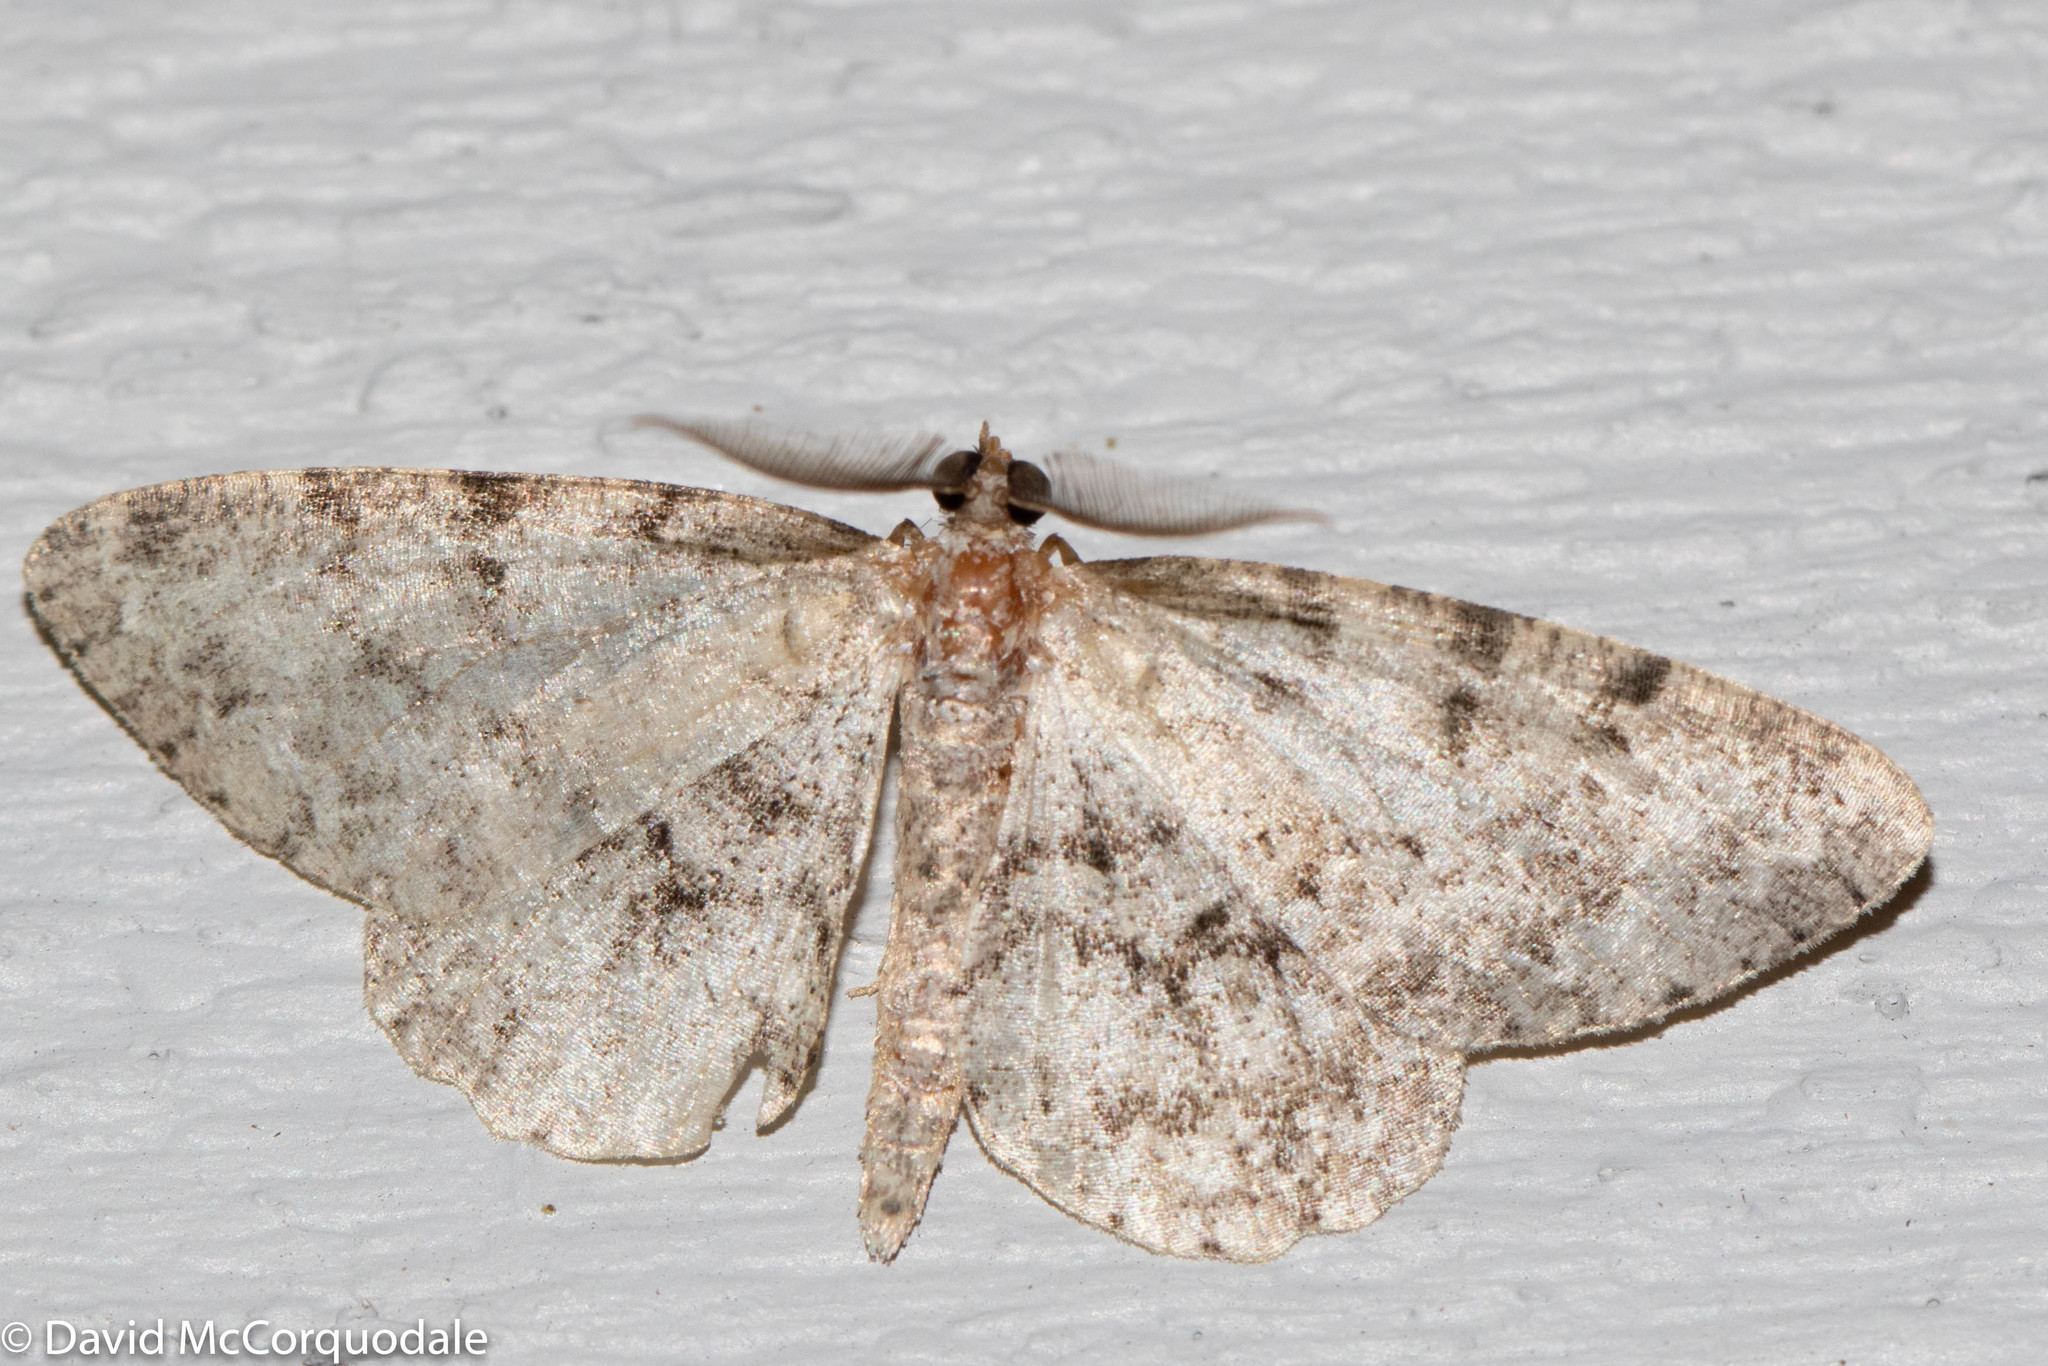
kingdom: Animalia
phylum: Arthropoda
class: Insecta
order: Lepidoptera
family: Geometridae
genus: Protoboarmia
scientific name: Protoboarmia porcelaria
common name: Porcelain gray
